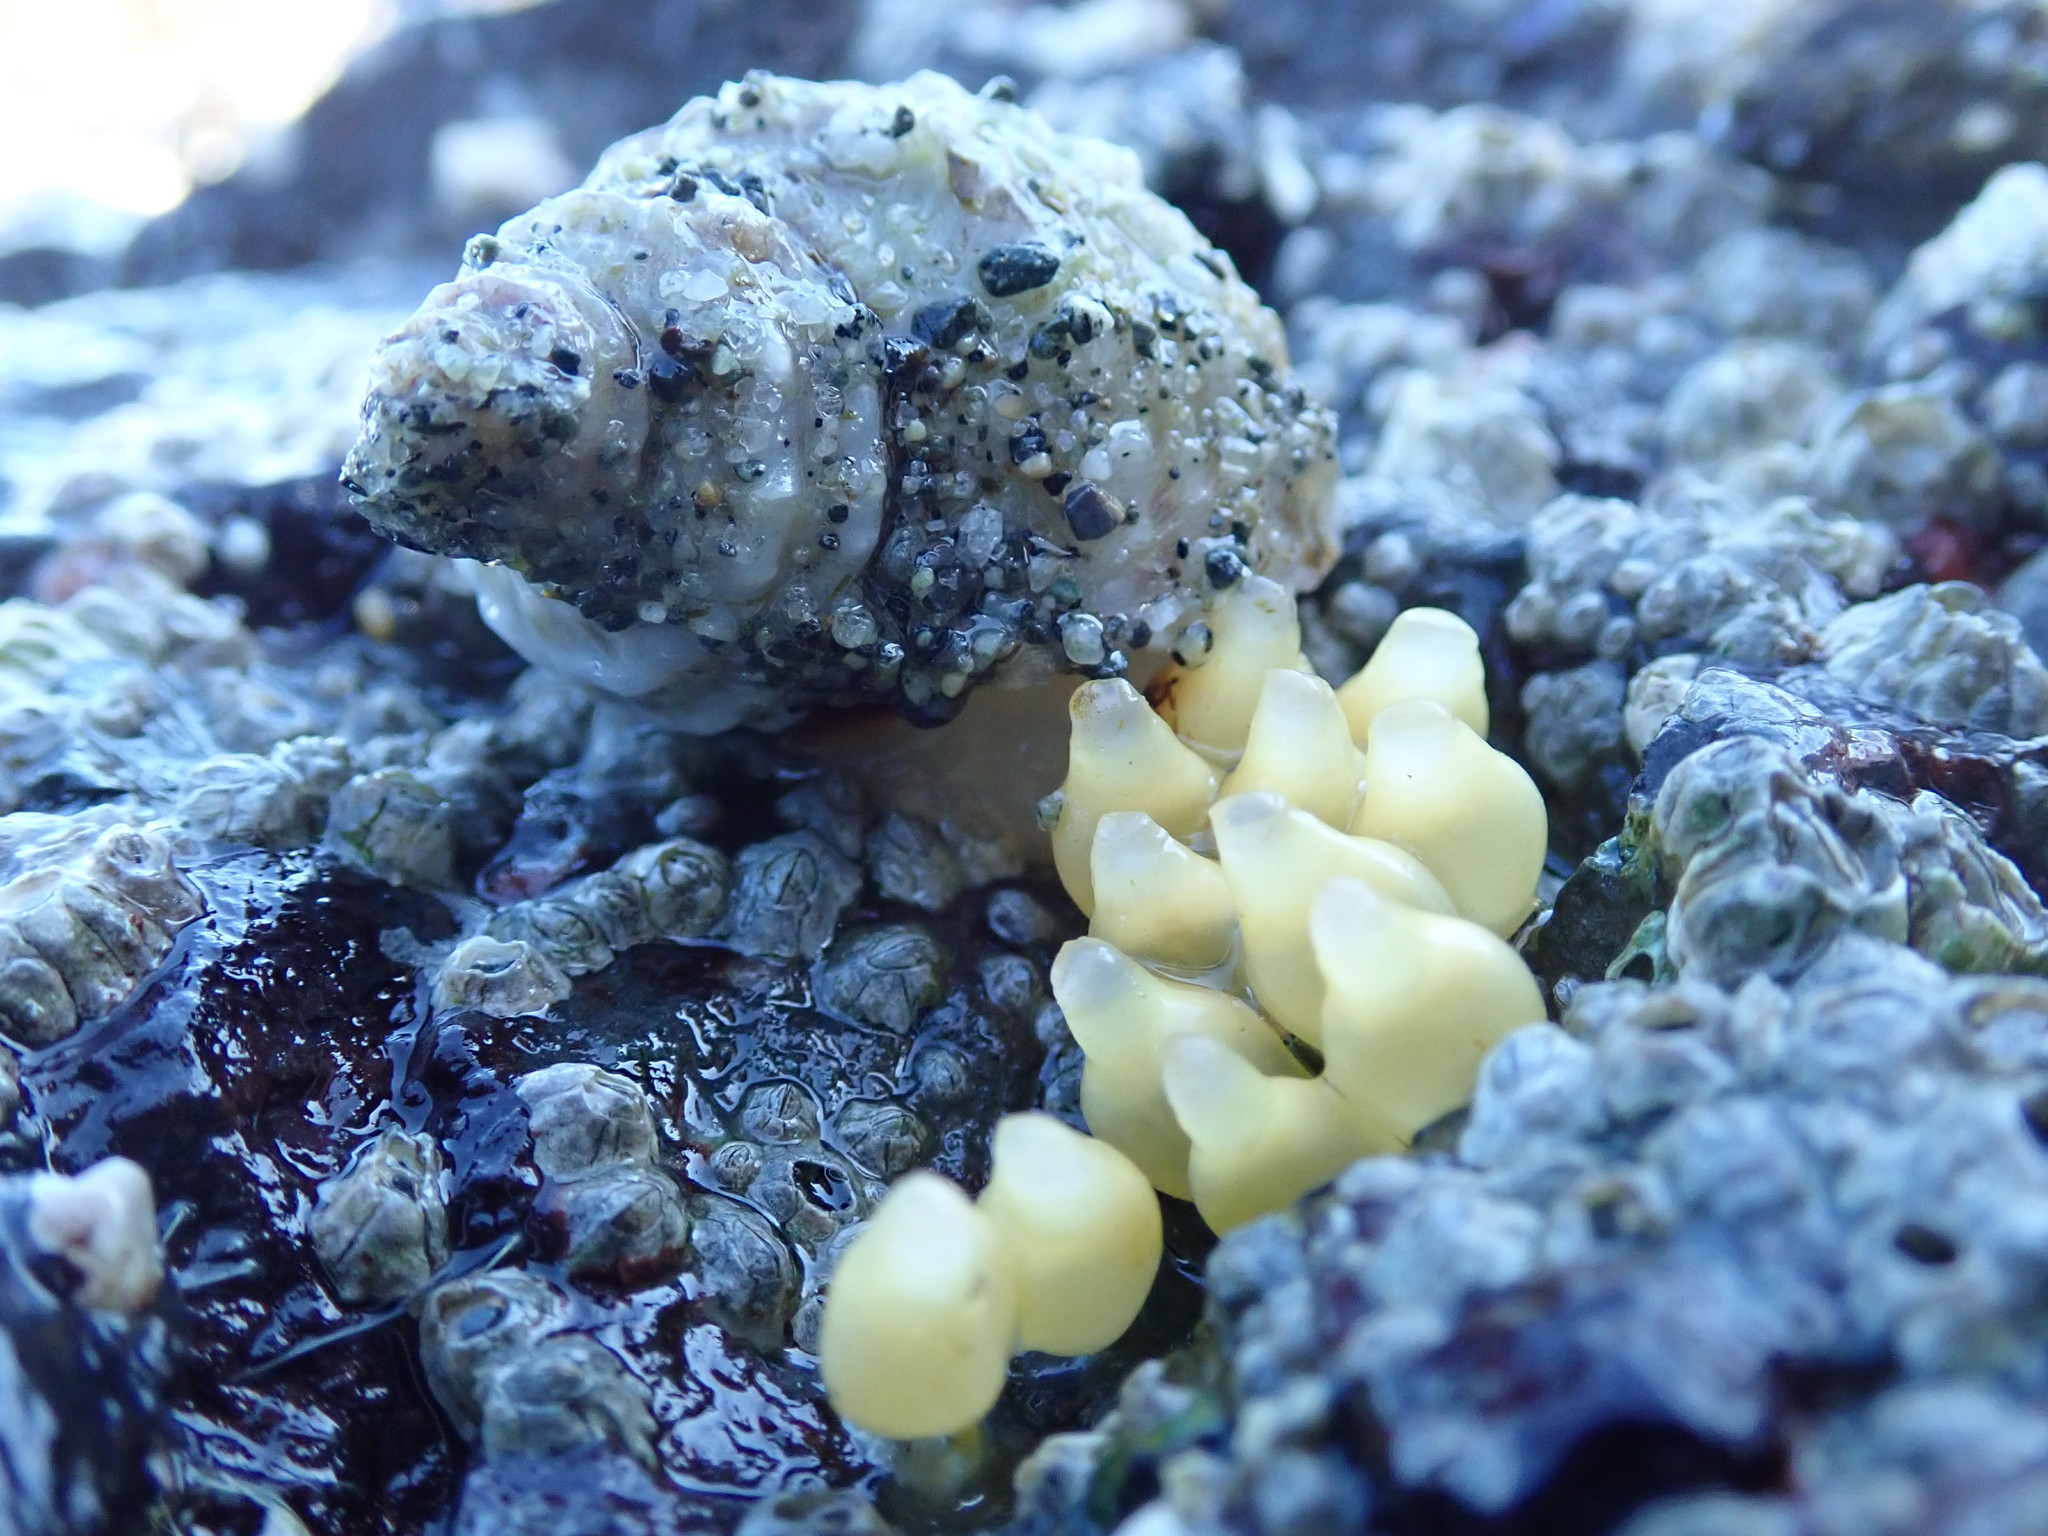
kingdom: Animalia
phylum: Mollusca
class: Gastropoda
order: Neogastropoda
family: Muricidae
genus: Nucella
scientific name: Nucella ostrina
